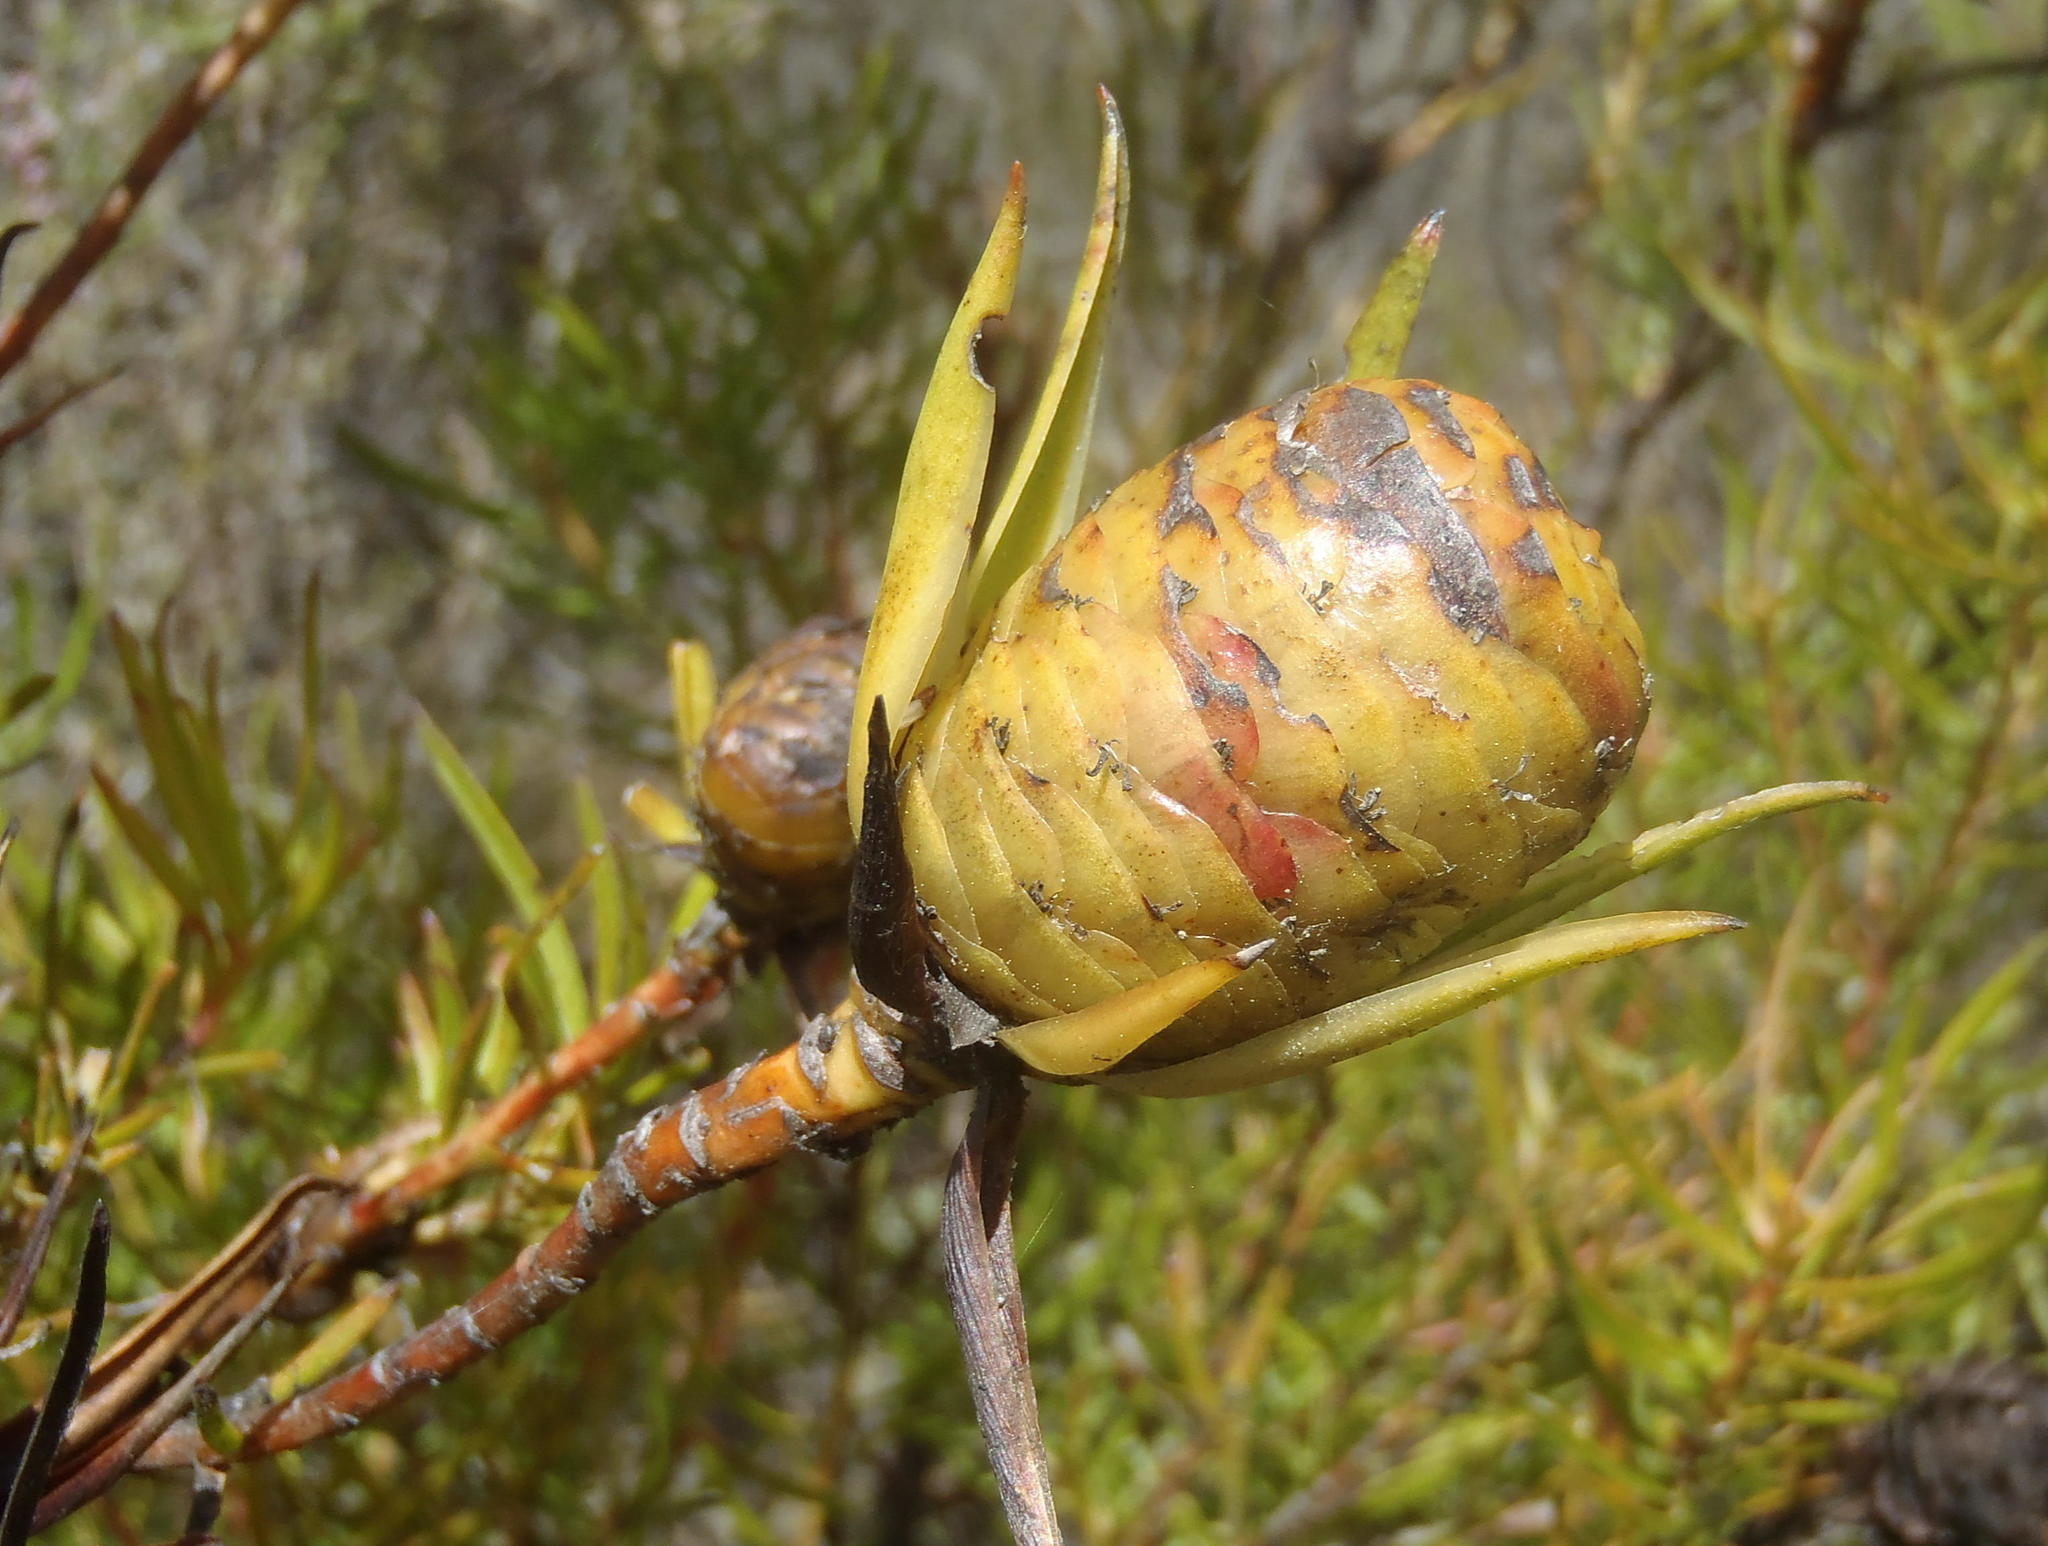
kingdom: Plantae
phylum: Tracheophyta
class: Magnoliopsida
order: Proteales
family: Proteaceae
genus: Leucadendron
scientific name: Leucadendron spissifolium
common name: Spear-leaf conebush
